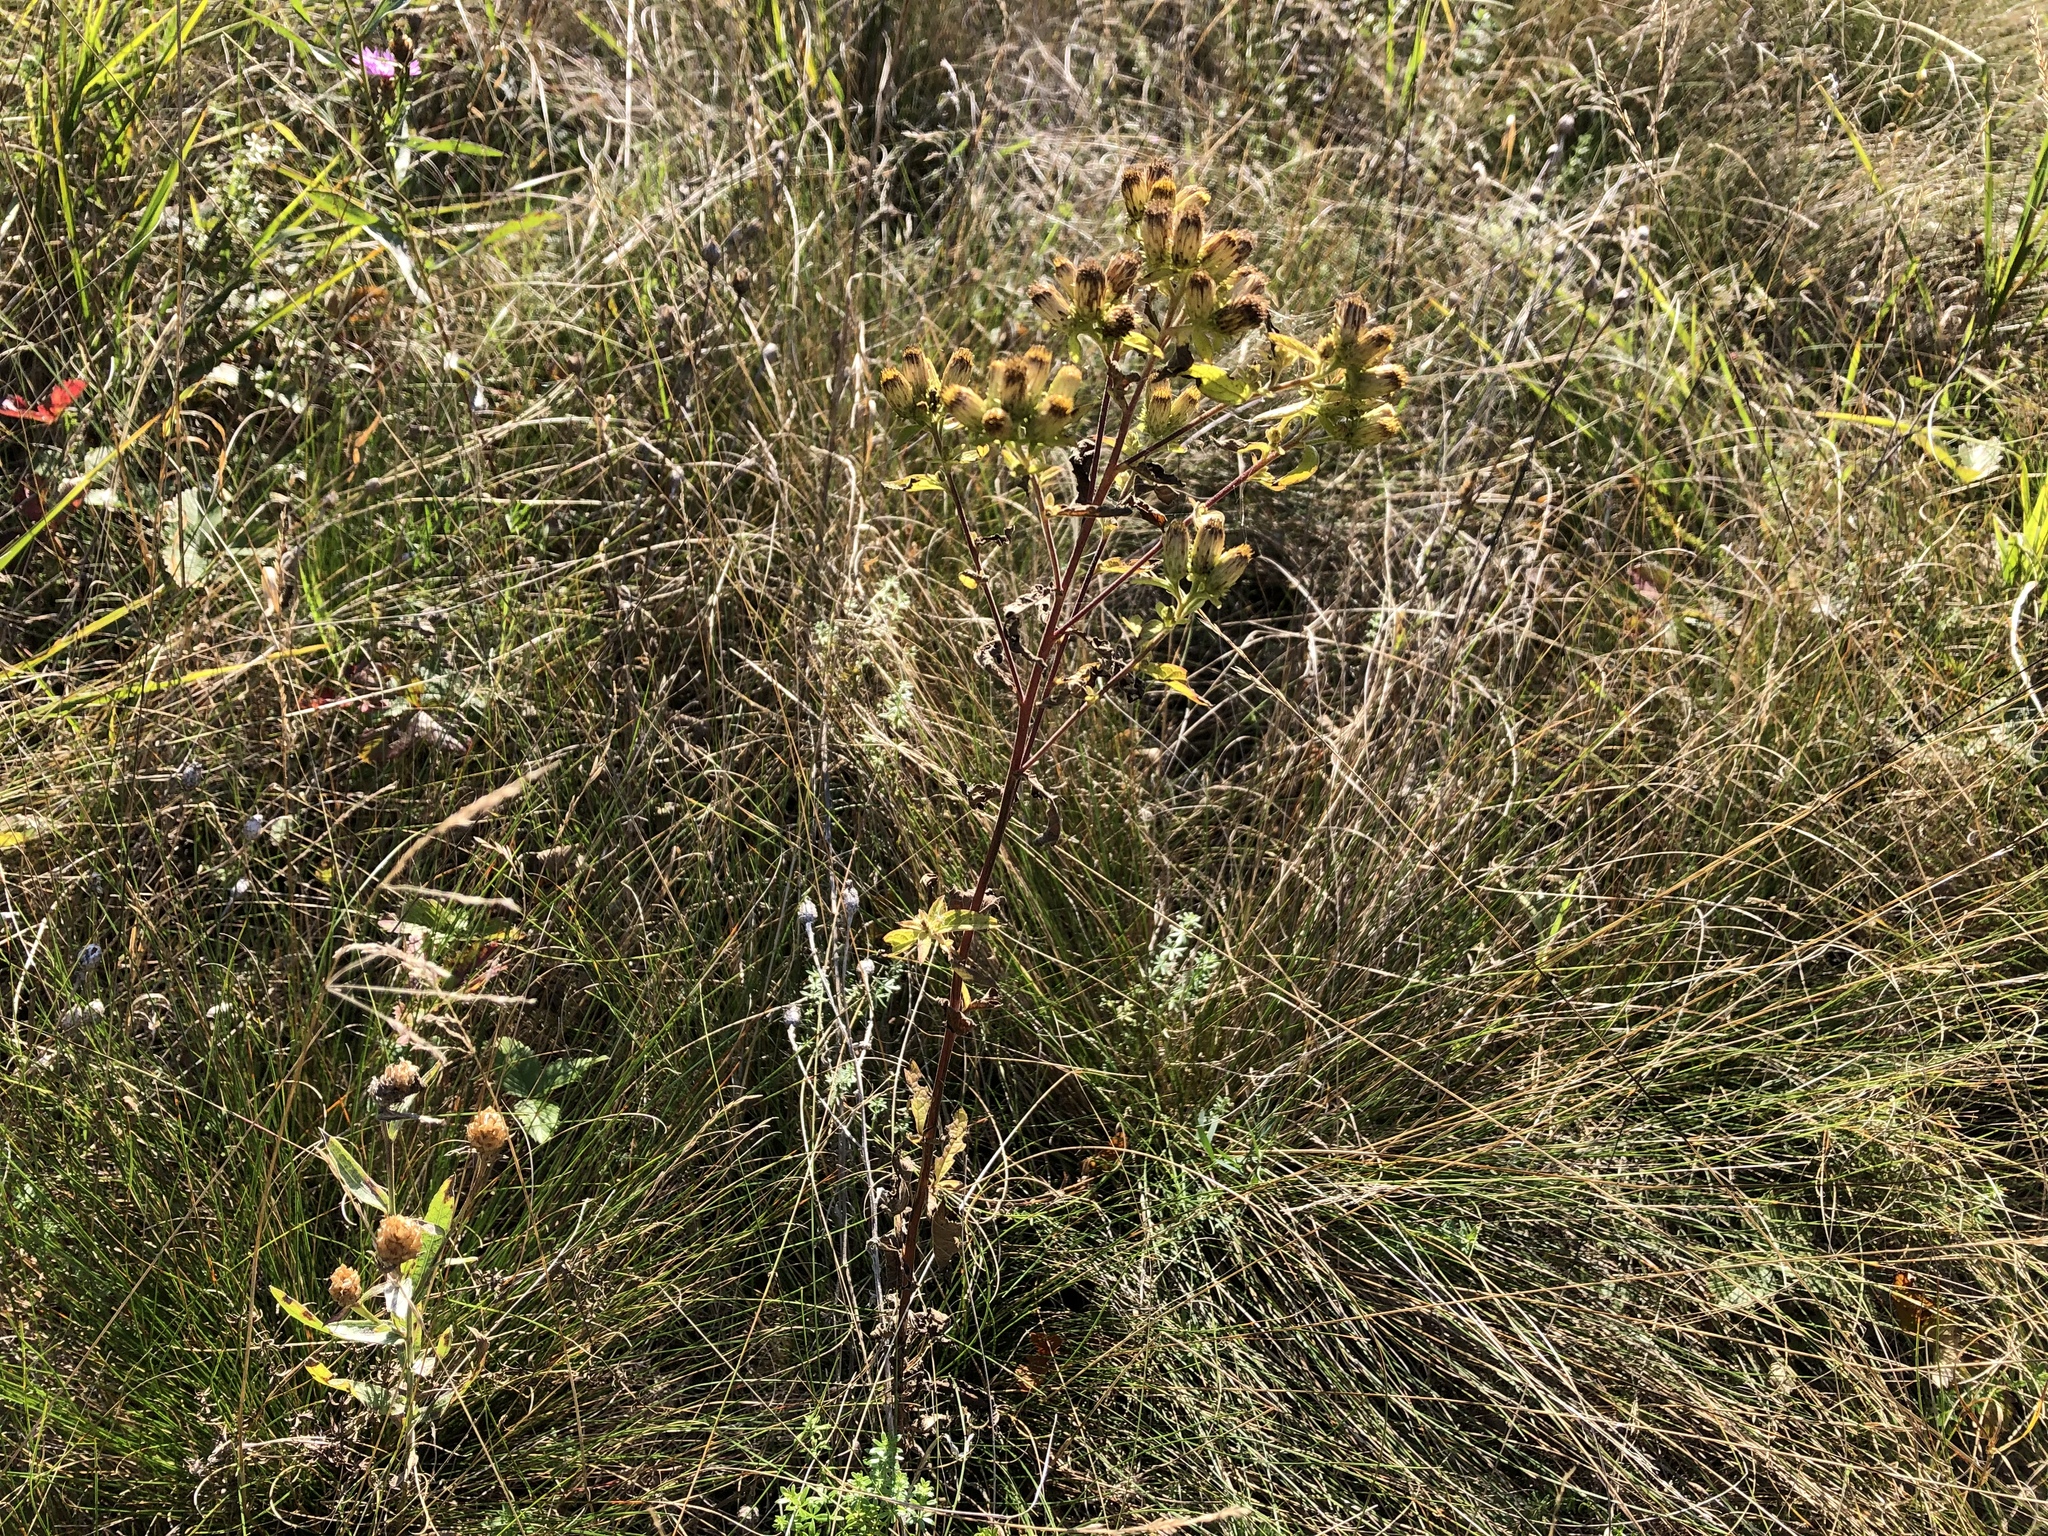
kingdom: Plantae
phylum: Tracheophyta
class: Magnoliopsida
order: Asterales
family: Asteraceae
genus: Pentanema
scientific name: Pentanema squarrosum
